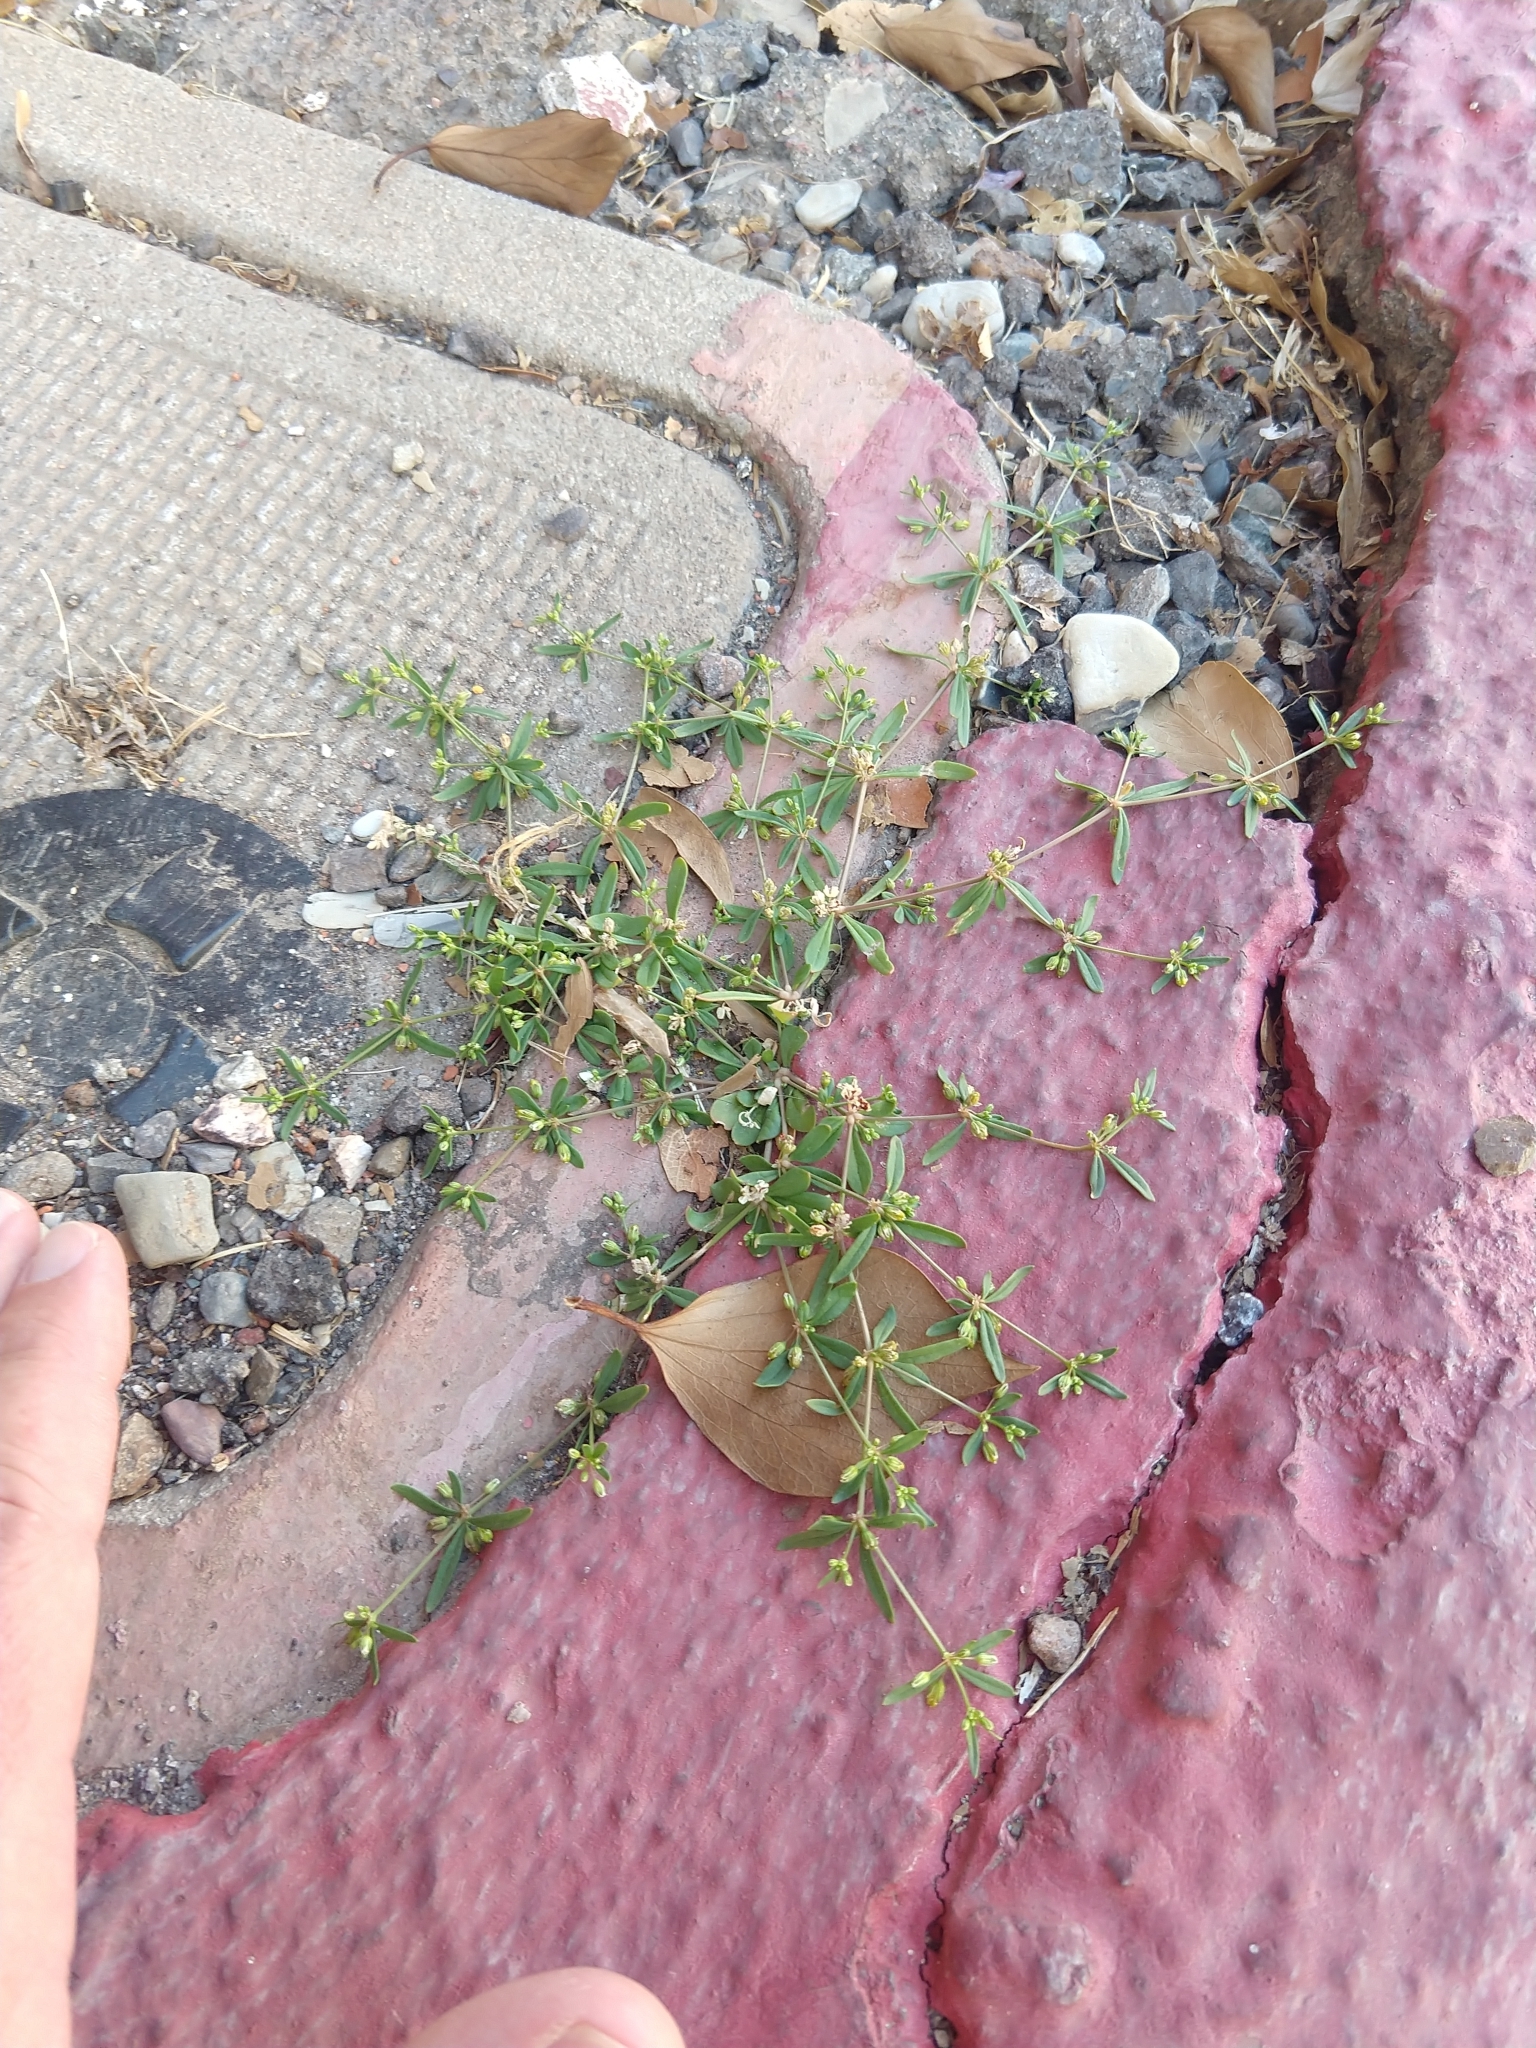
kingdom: Plantae
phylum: Tracheophyta
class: Magnoliopsida
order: Caryophyllales
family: Molluginaceae
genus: Mollugo
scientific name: Mollugo verticillata
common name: Green carpetweed
